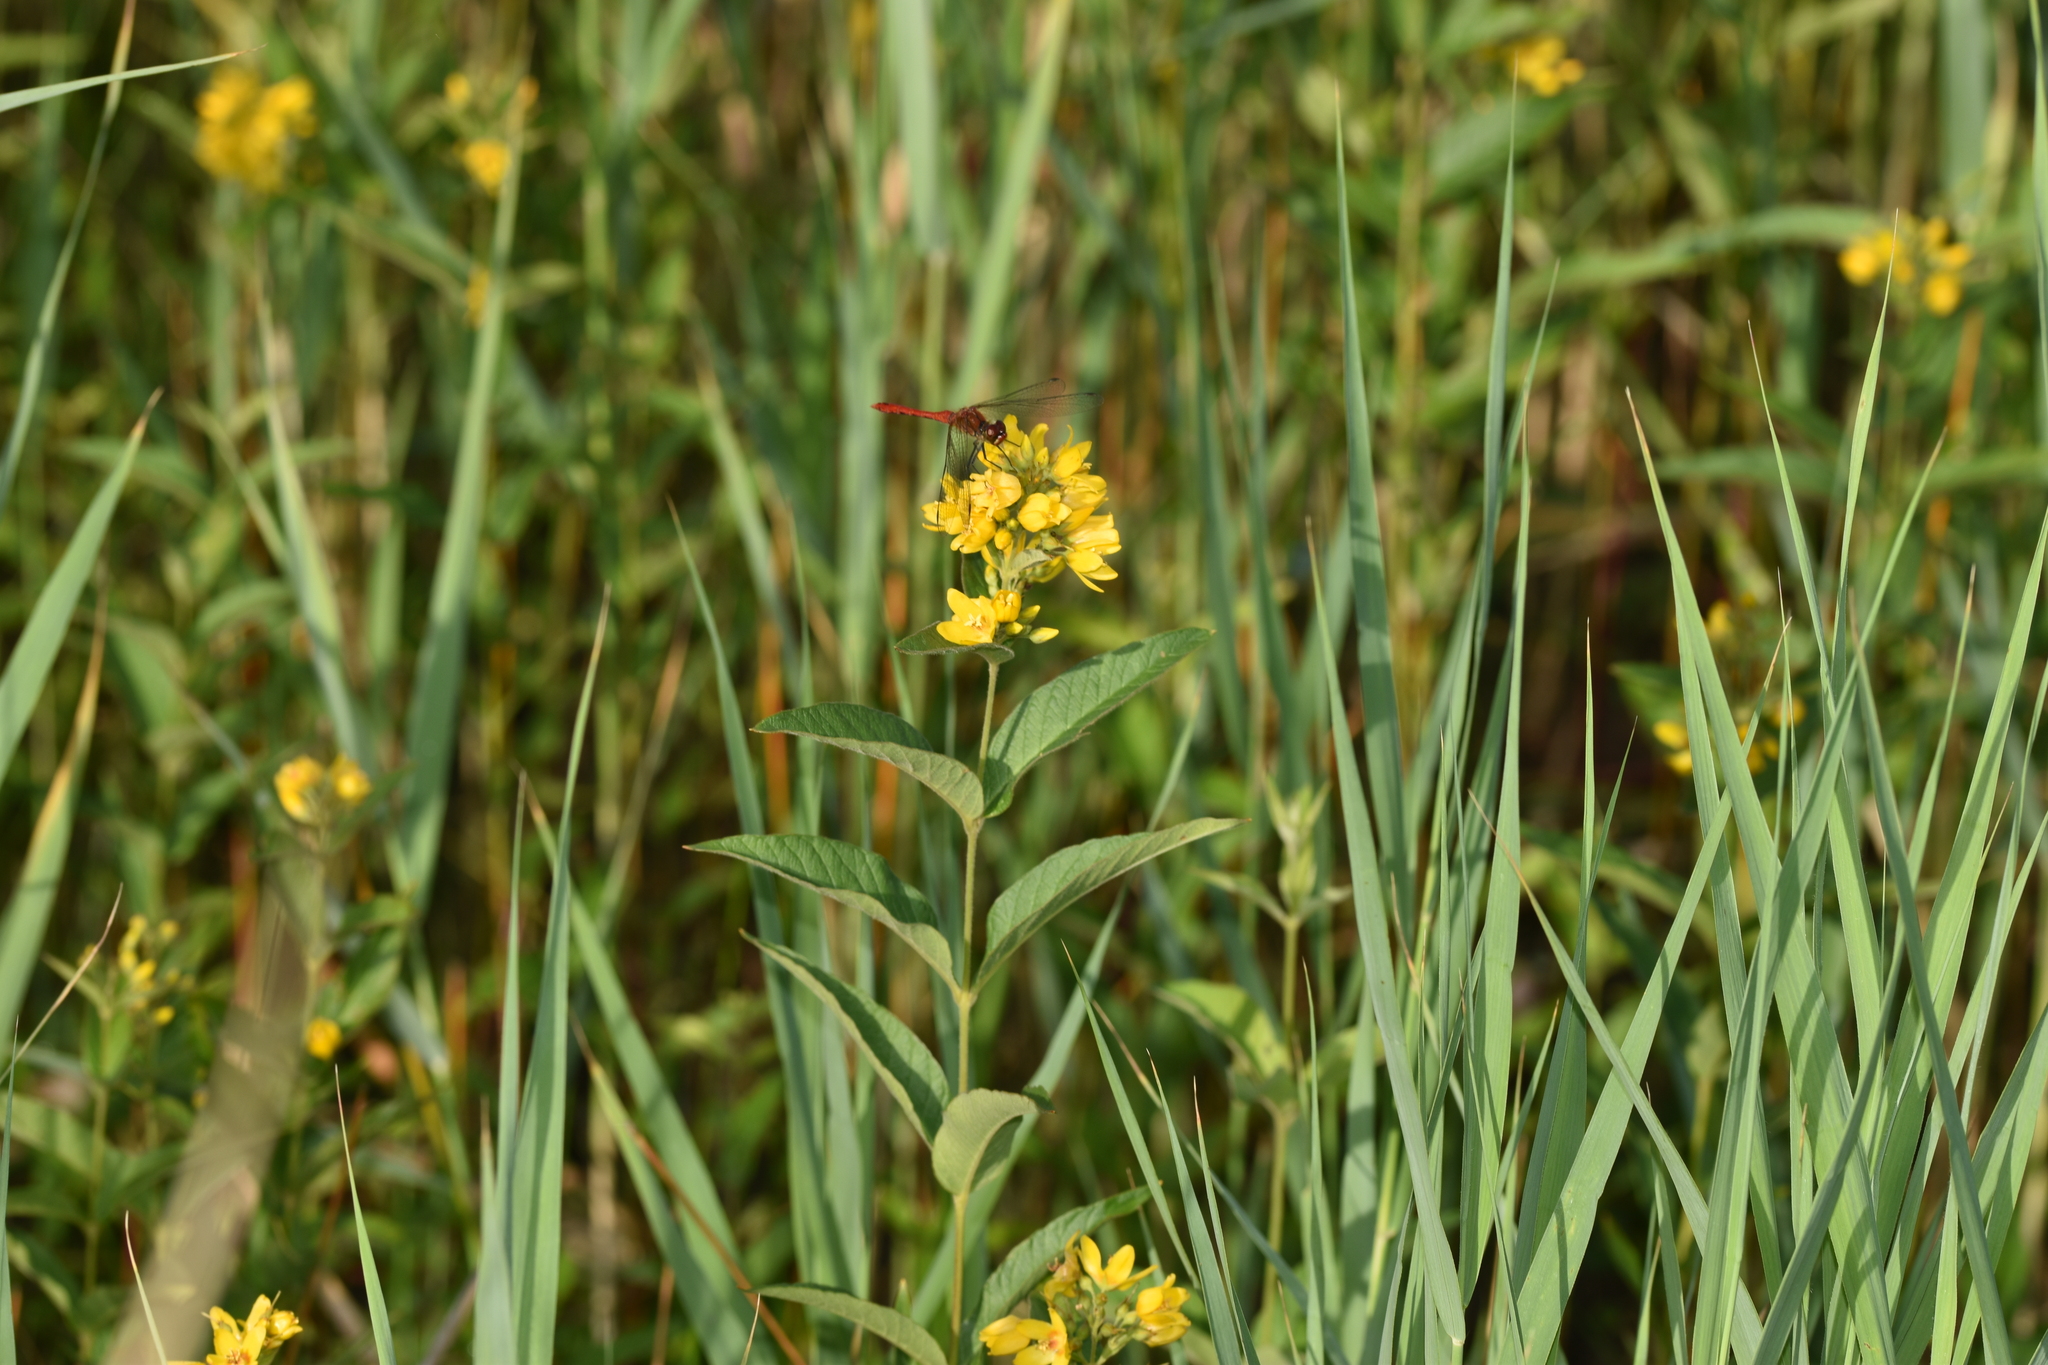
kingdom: Animalia
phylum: Arthropoda
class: Insecta
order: Odonata
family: Libellulidae
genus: Sympetrum
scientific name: Sympetrum sanguineum
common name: Ruddy darter
